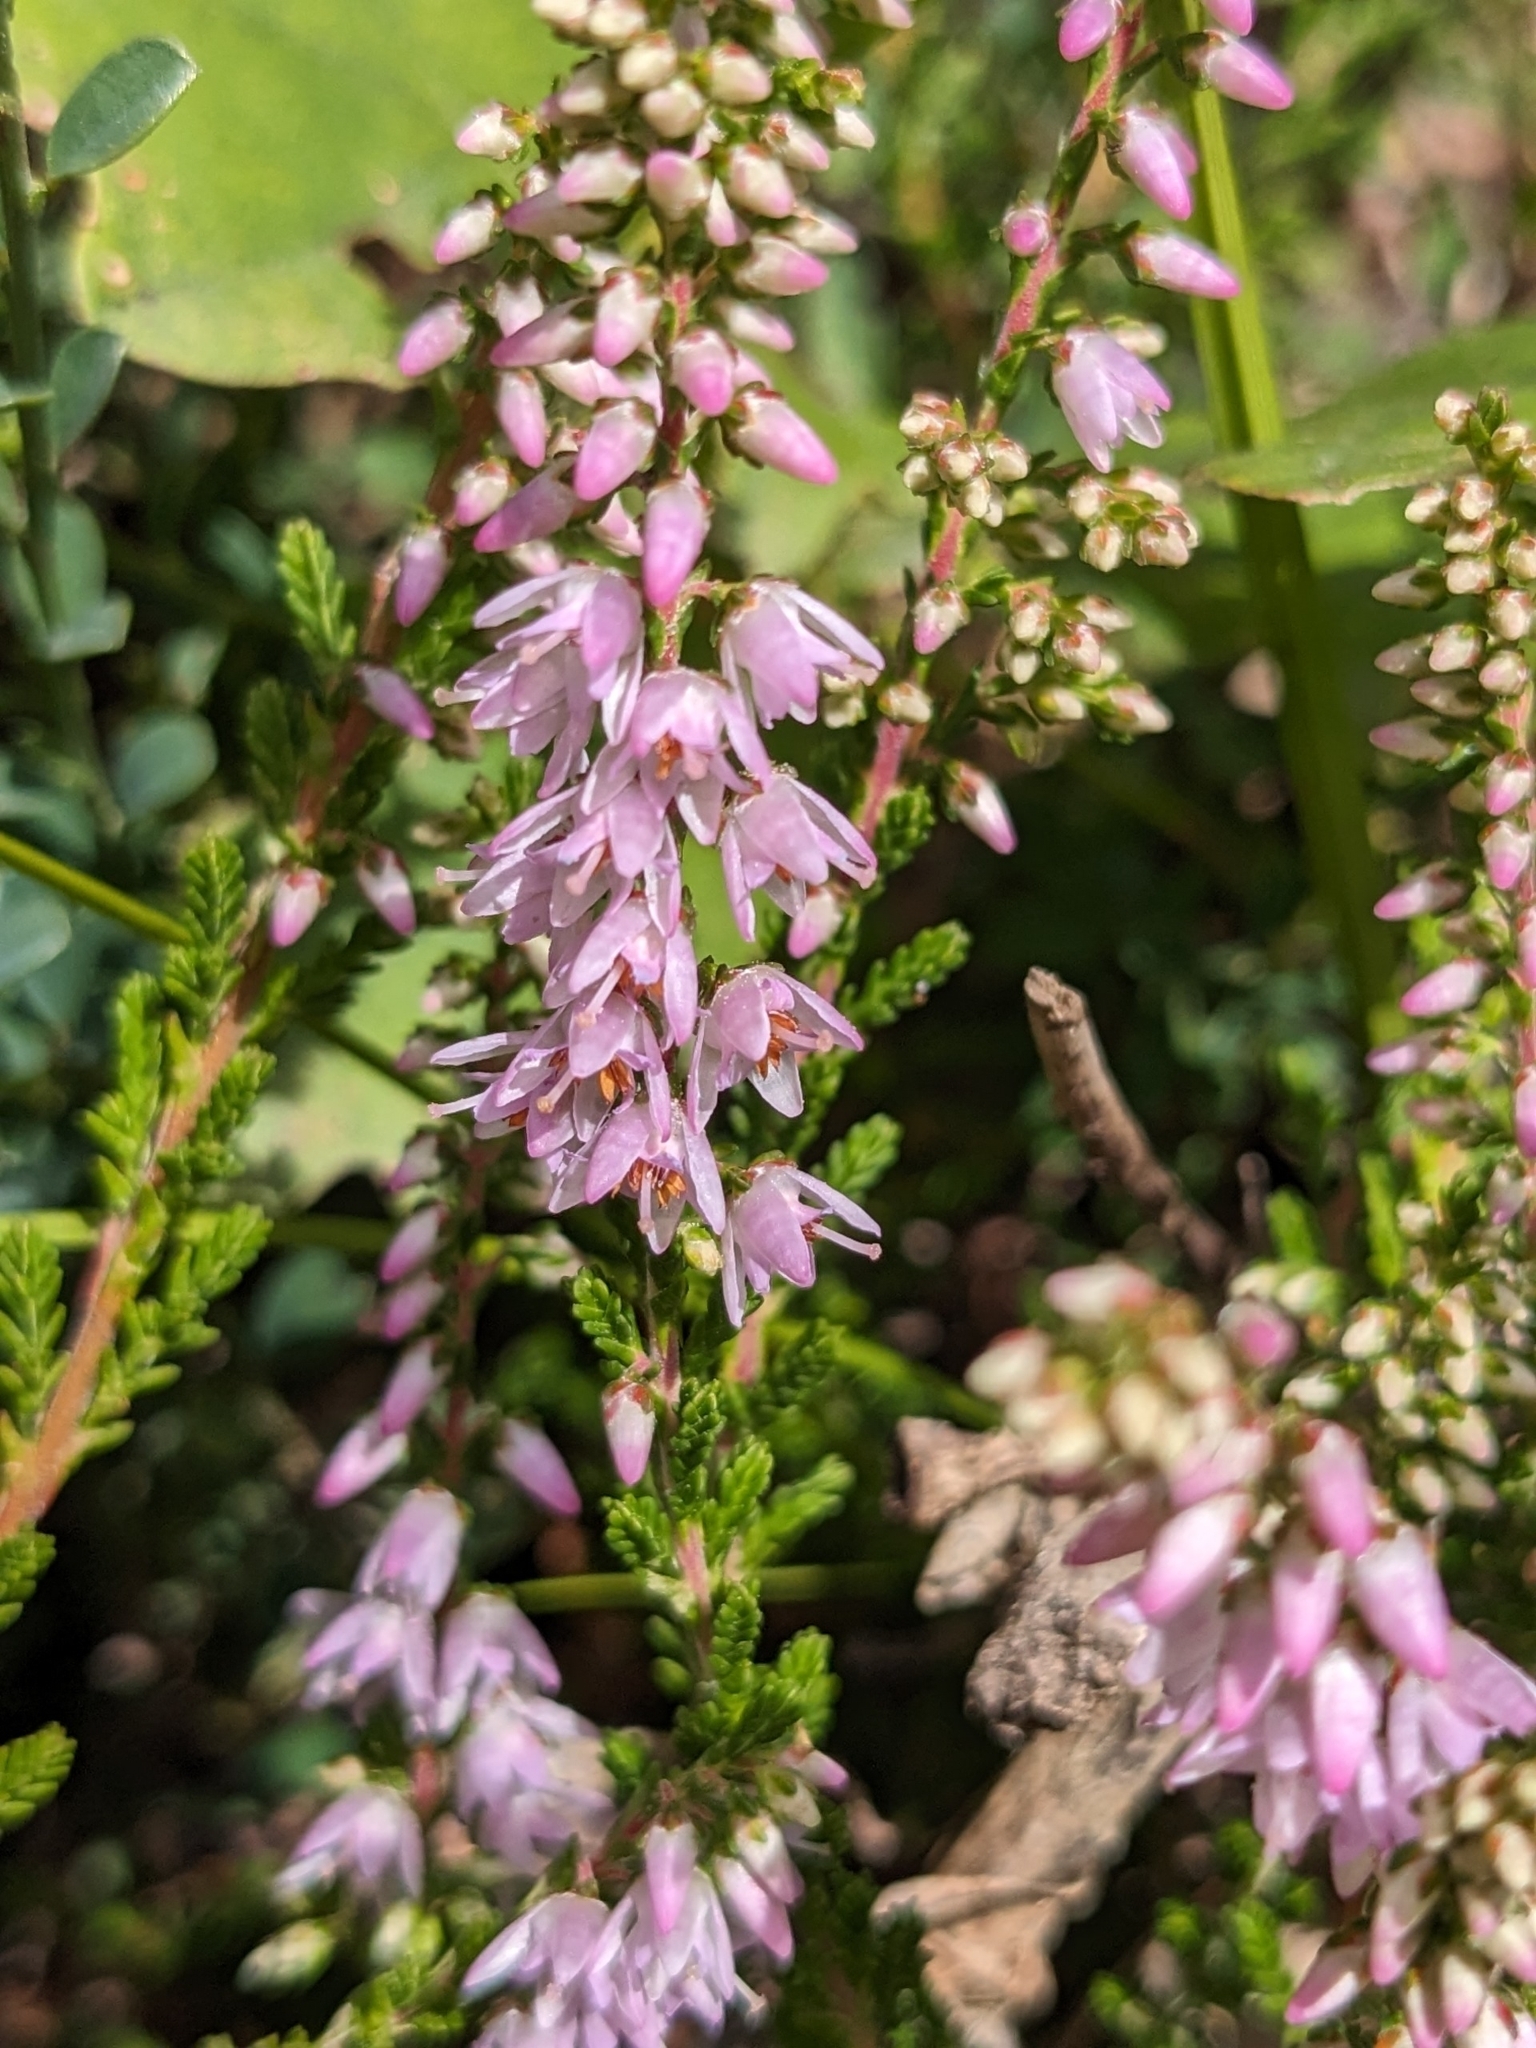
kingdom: Plantae
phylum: Tracheophyta
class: Magnoliopsida
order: Ericales
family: Ericaceae
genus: Calluna
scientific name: Calluna vulgaris
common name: Heather
